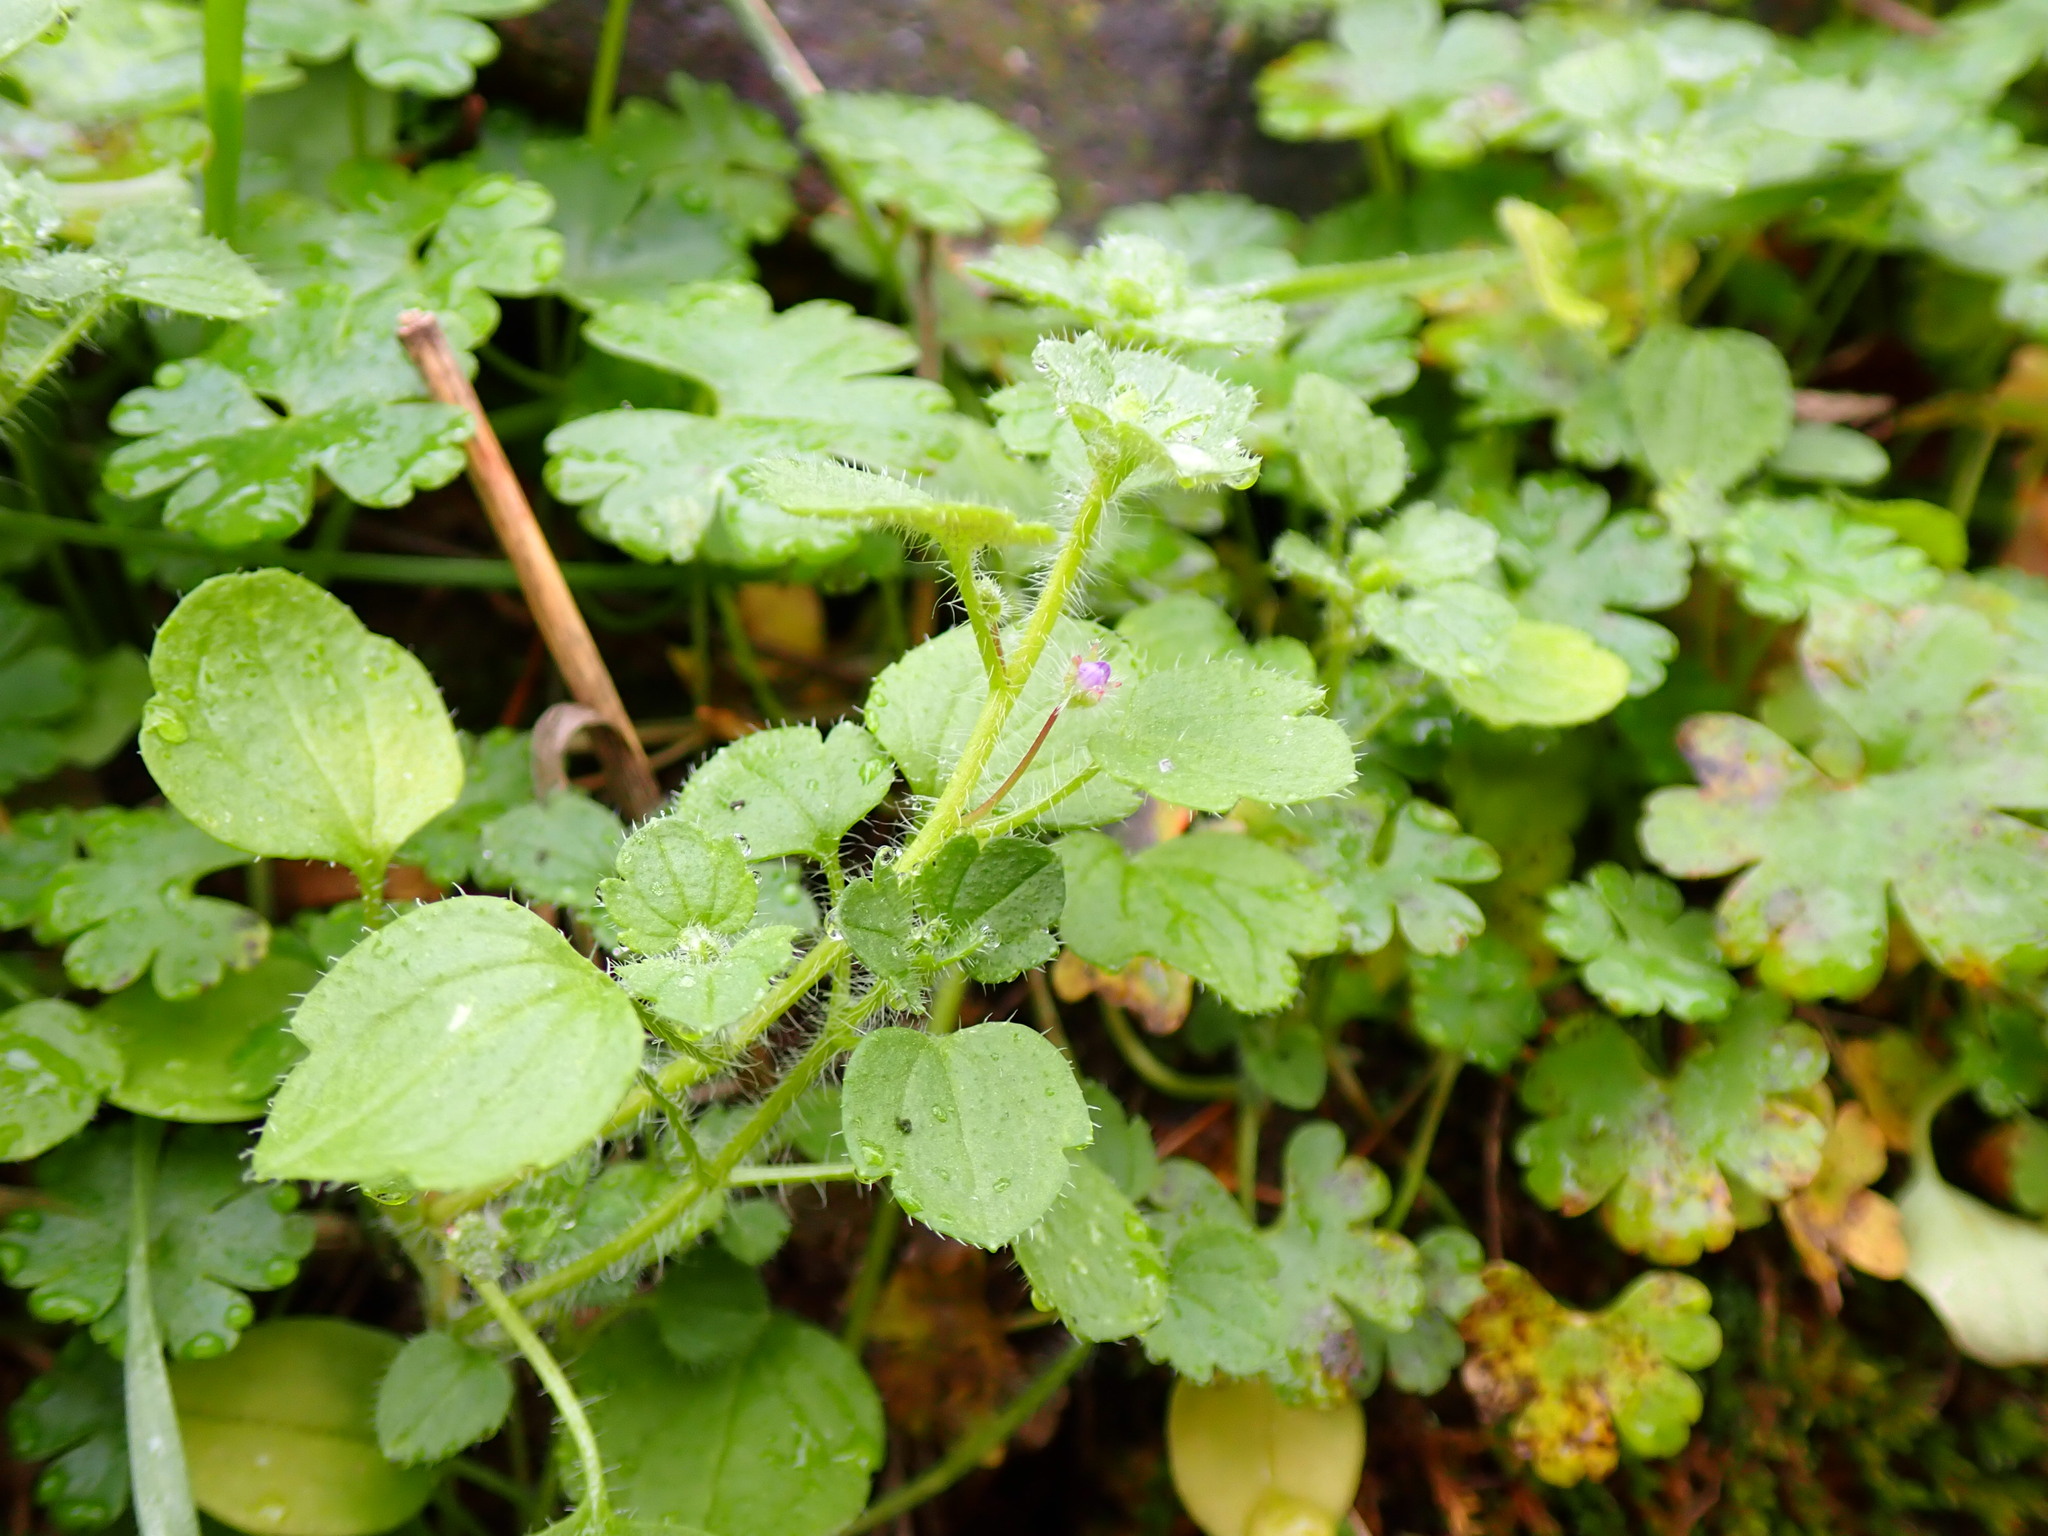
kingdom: Plantae
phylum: Tracheophyta
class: Magnoliopsida
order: Lamiales
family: Plantaginaceae
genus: Veronica
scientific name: Veronica hederifolia
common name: Ivy-leaved speedwell
